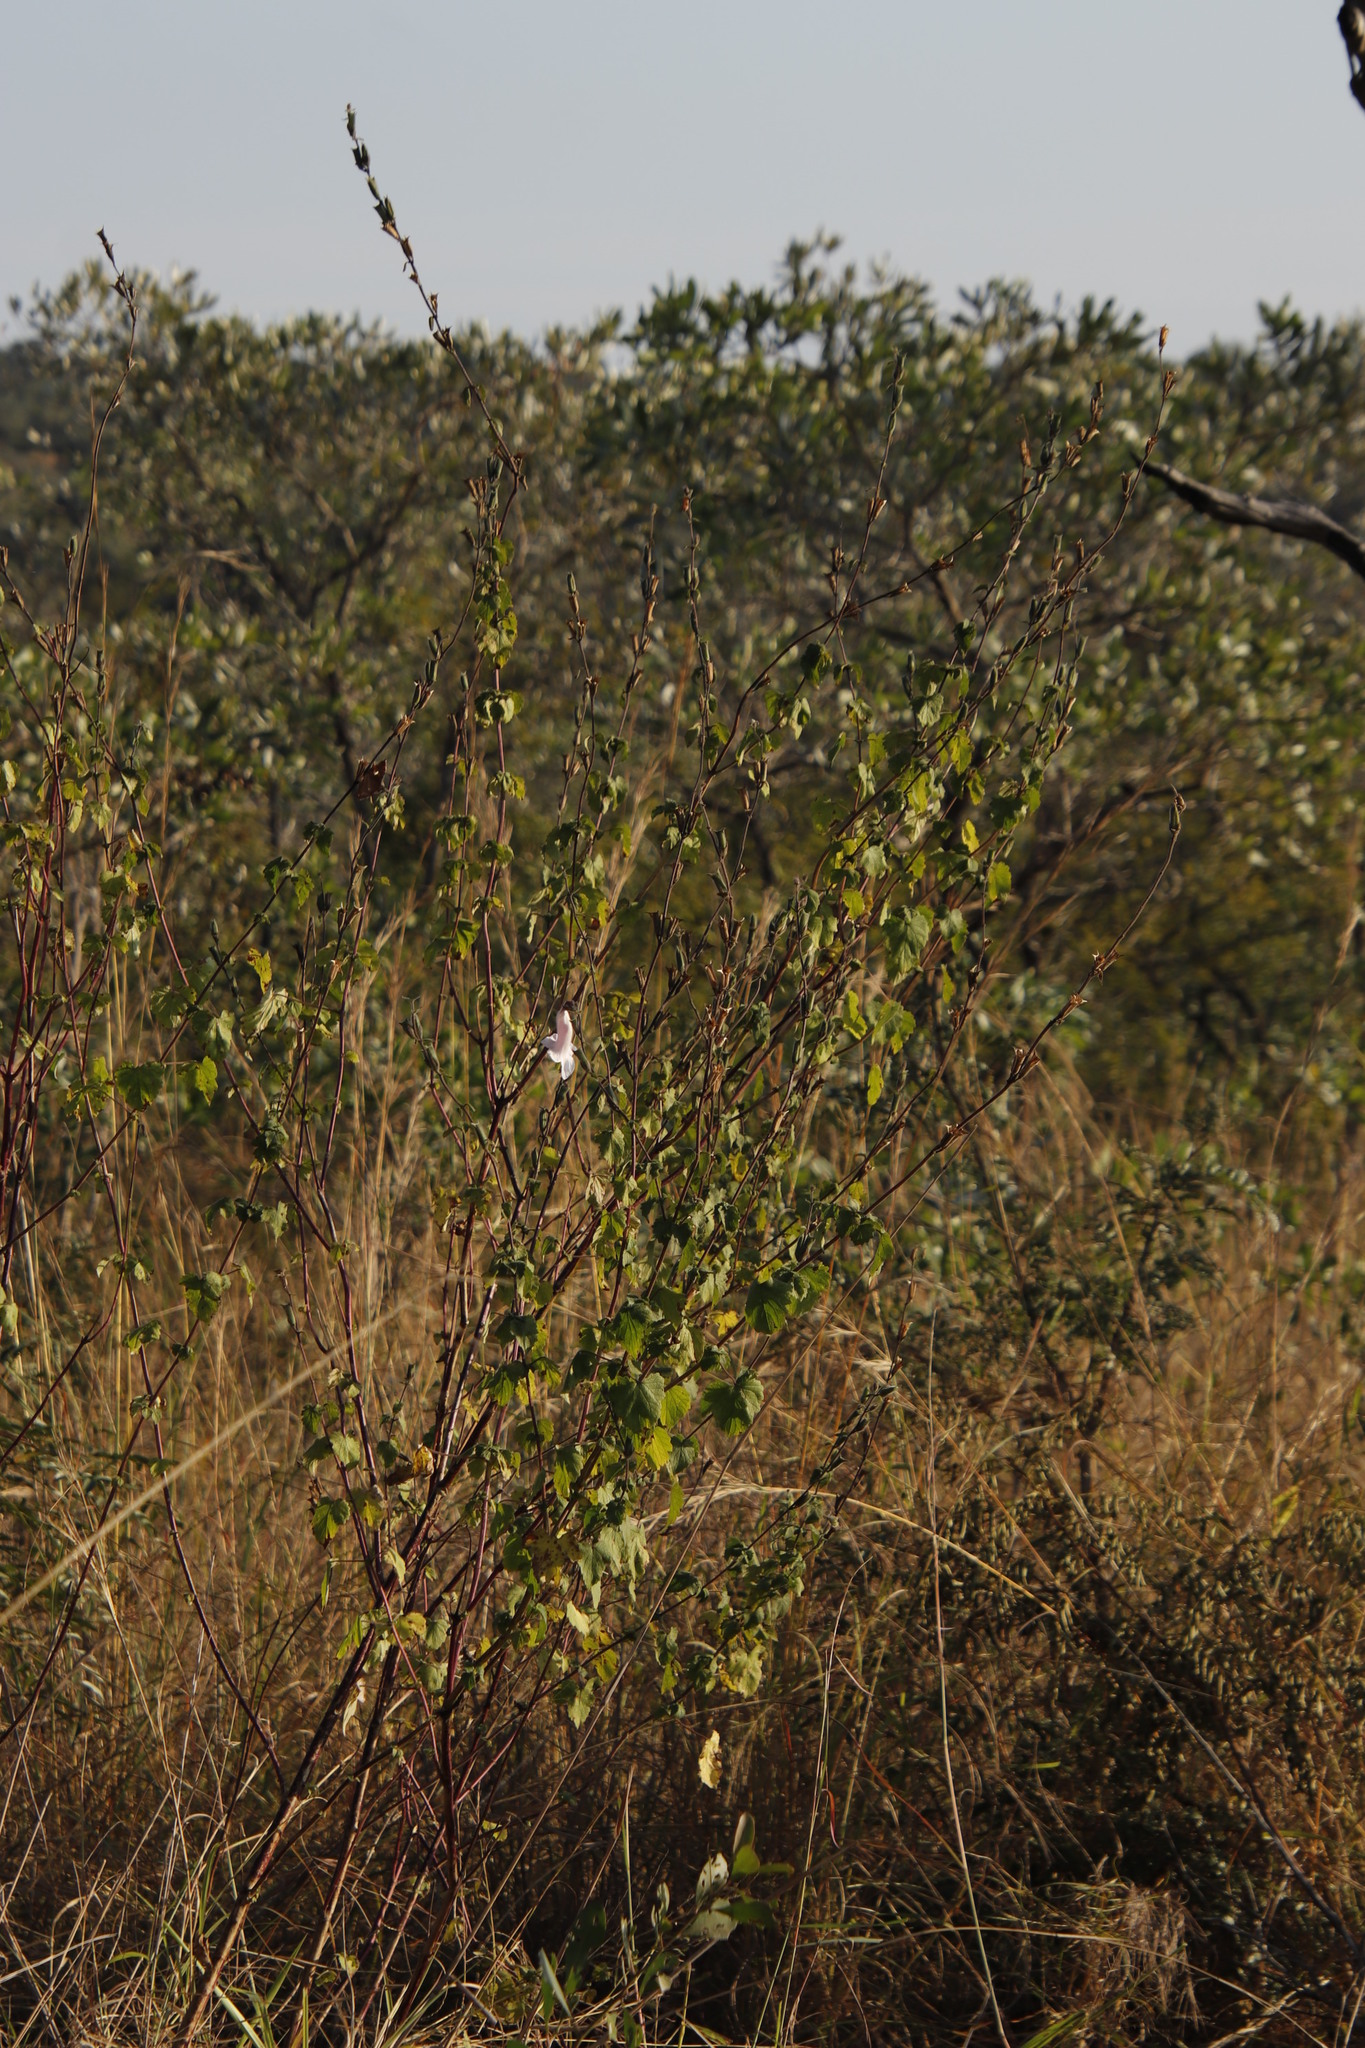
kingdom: Plantae
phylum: Tracheophyta
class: Magnoliopsida
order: Lamiales
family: Pedaliaceae
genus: Sesamum
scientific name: Sesamum trilobum
